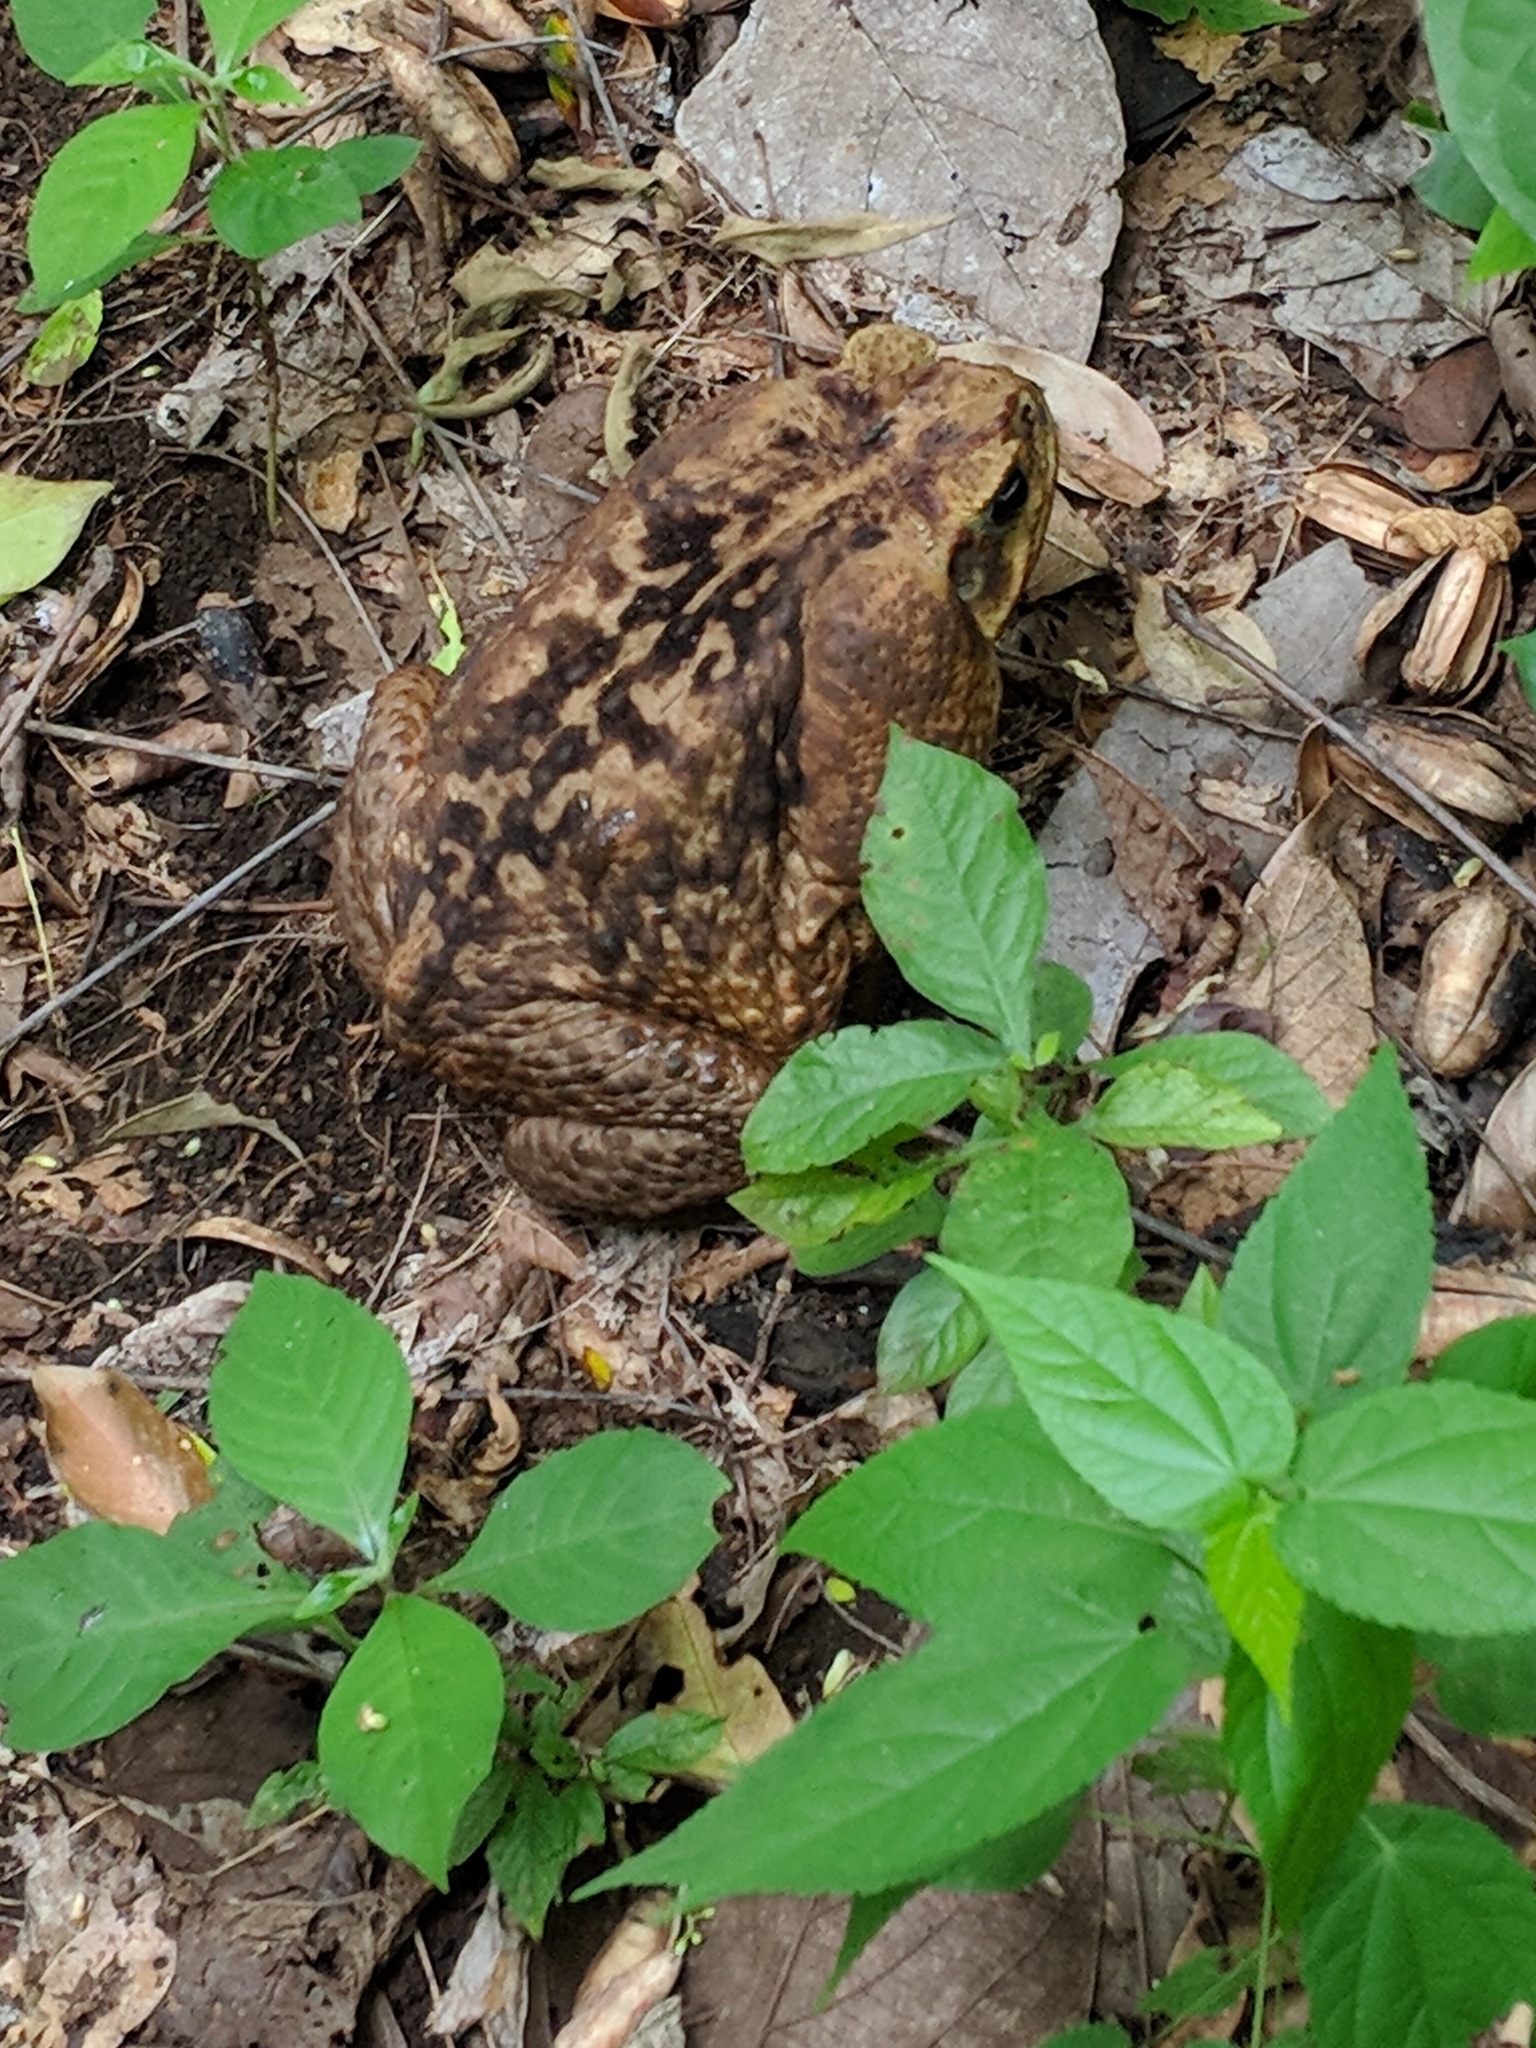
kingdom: Animalia
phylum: Chordata
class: Amphibia
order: Anura
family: Bufonidae
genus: Rhinella
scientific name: Rhinella horribilis
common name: Mesoamerican cane toad
